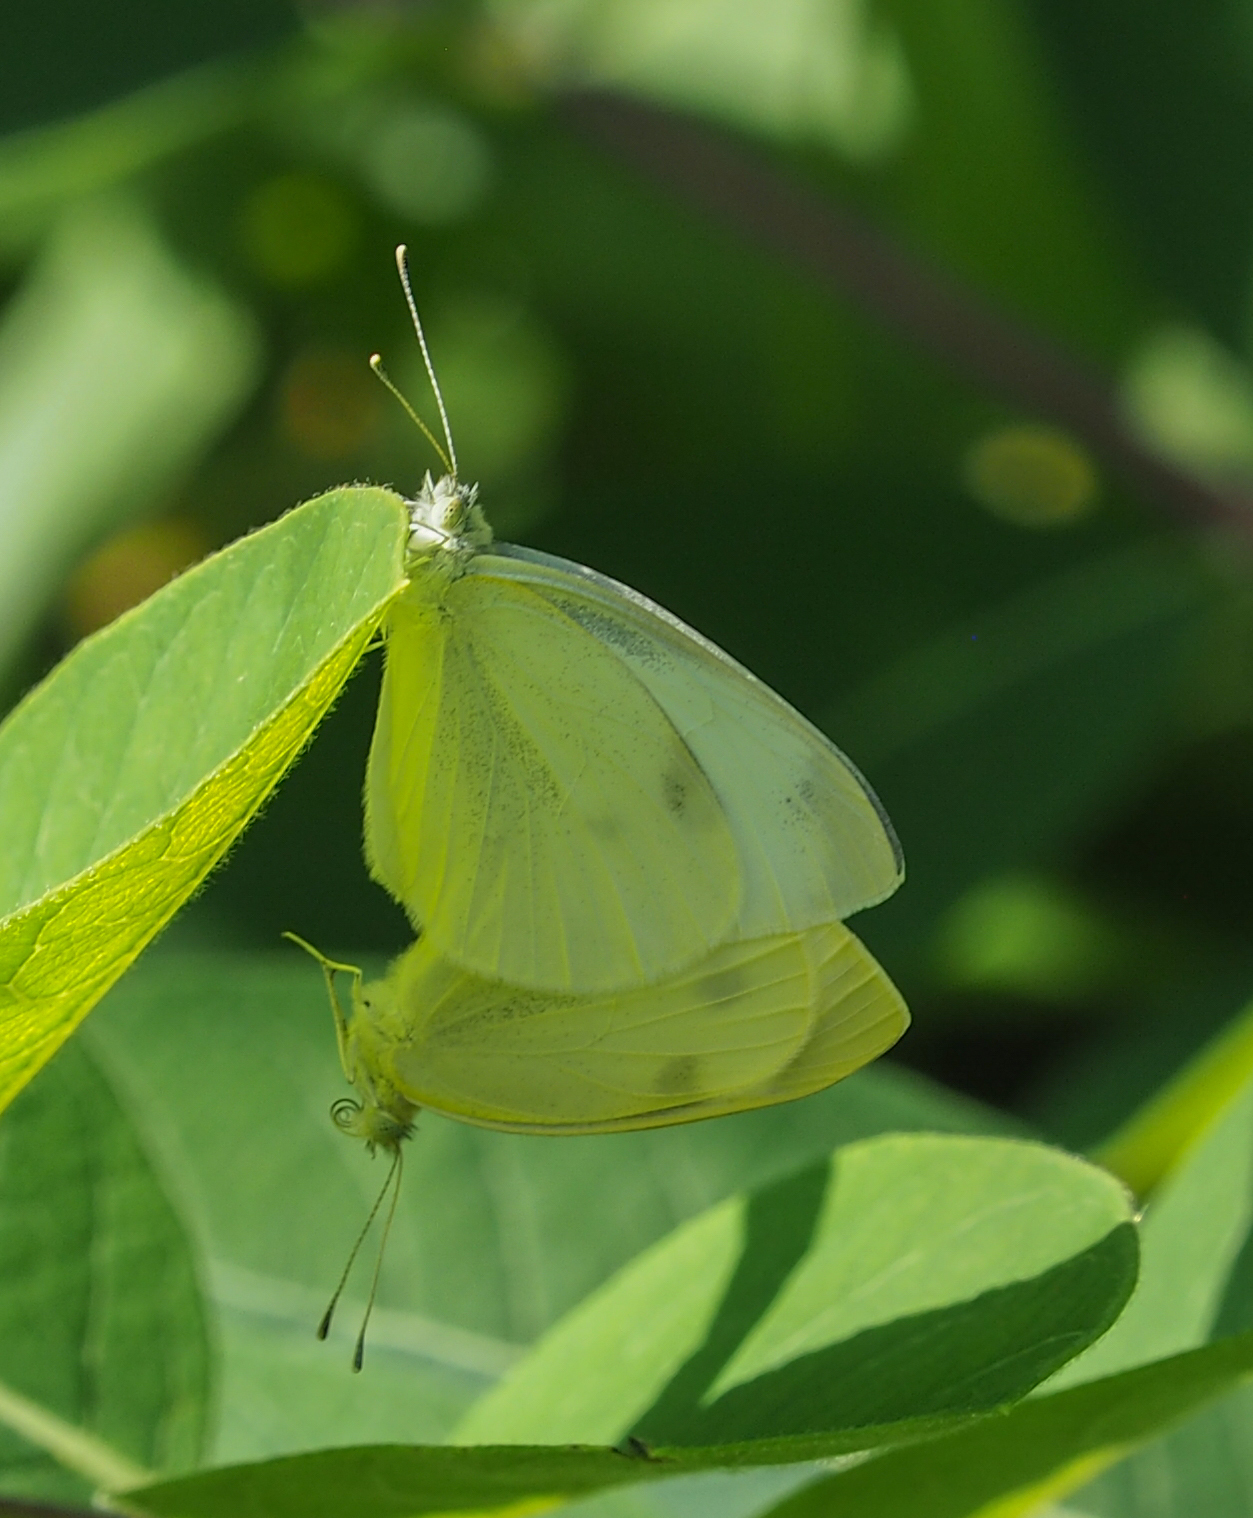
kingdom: Animalia
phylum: Arthropoda
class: Insecta
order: Lepidoptera
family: Pieridae
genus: Pieris
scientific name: Pieris rapae
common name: Small white
